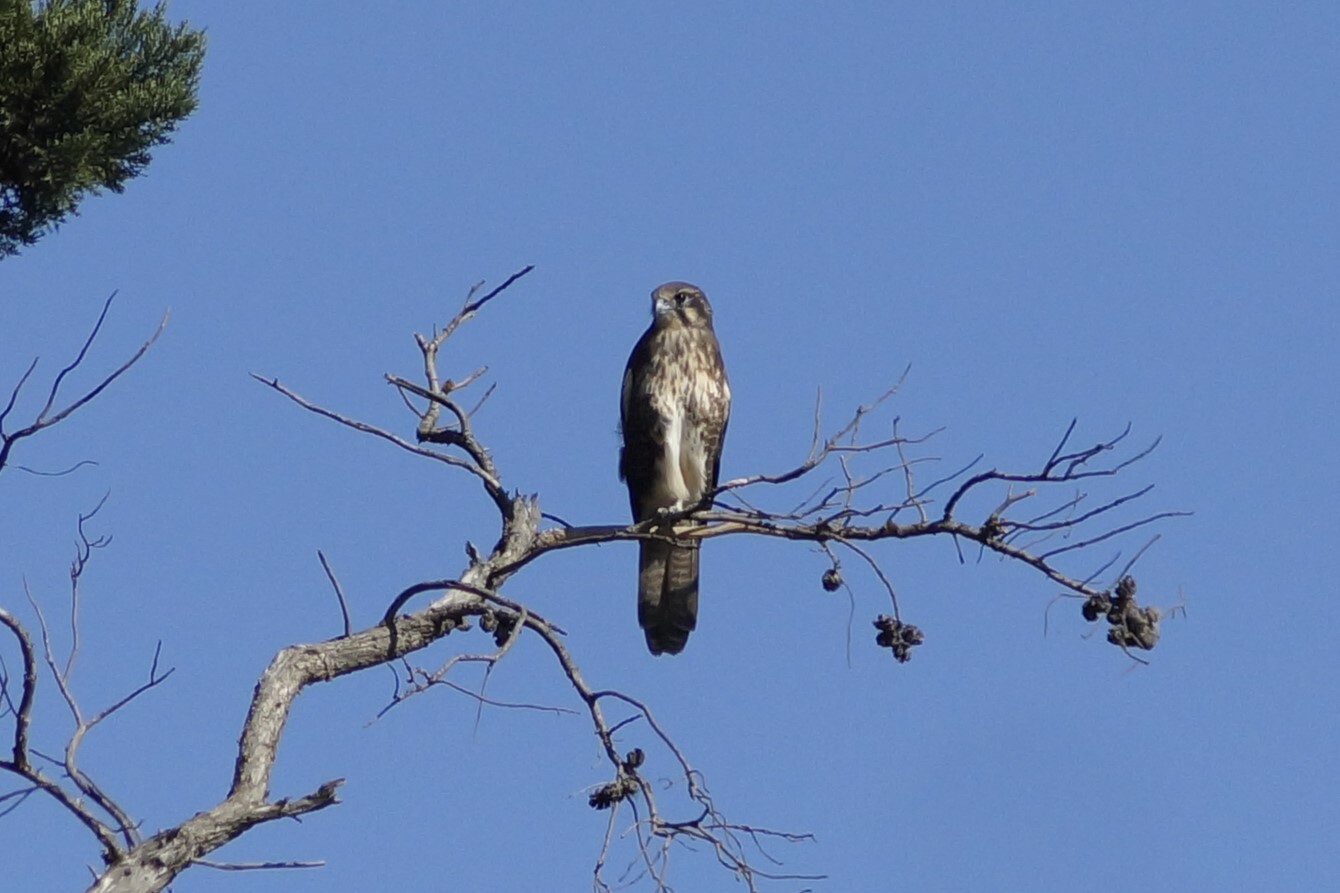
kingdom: Animalia
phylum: Chordata
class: Aves
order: Falconiformes
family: Falconidae
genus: Falco
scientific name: Falco berigora
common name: Brown falcon
